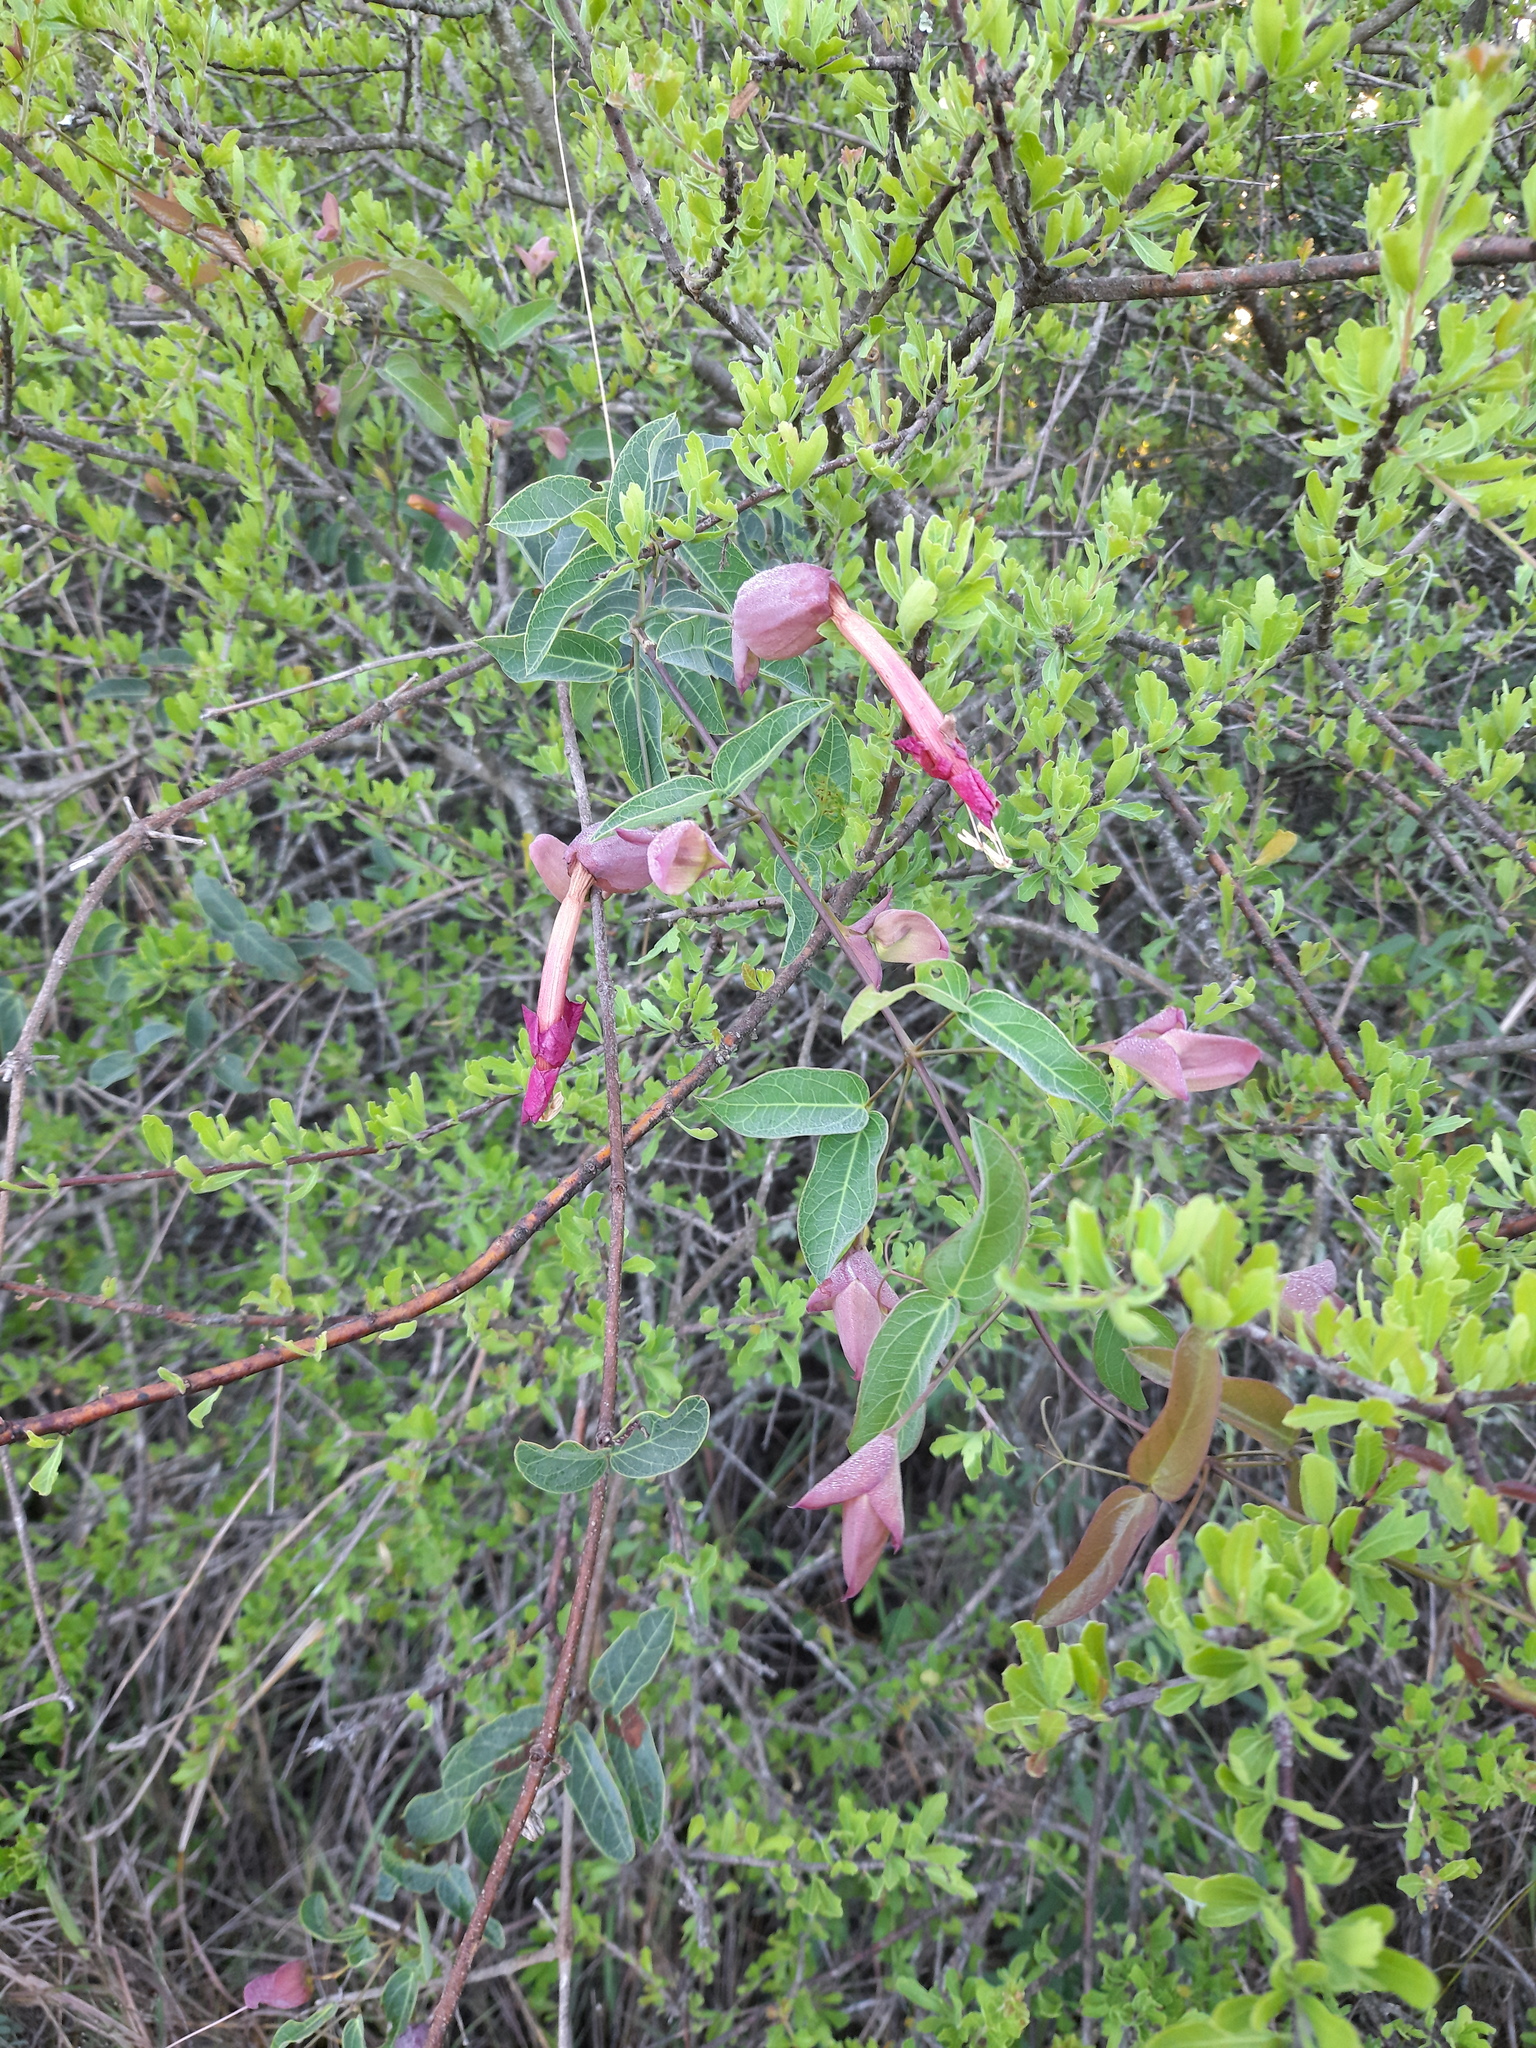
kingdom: Plantae
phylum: Tracheophyta
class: Magnoliopsida
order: Lamiales
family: Bignoniaceae
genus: Dolichandra
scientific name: Dolichandra cynanchoides
